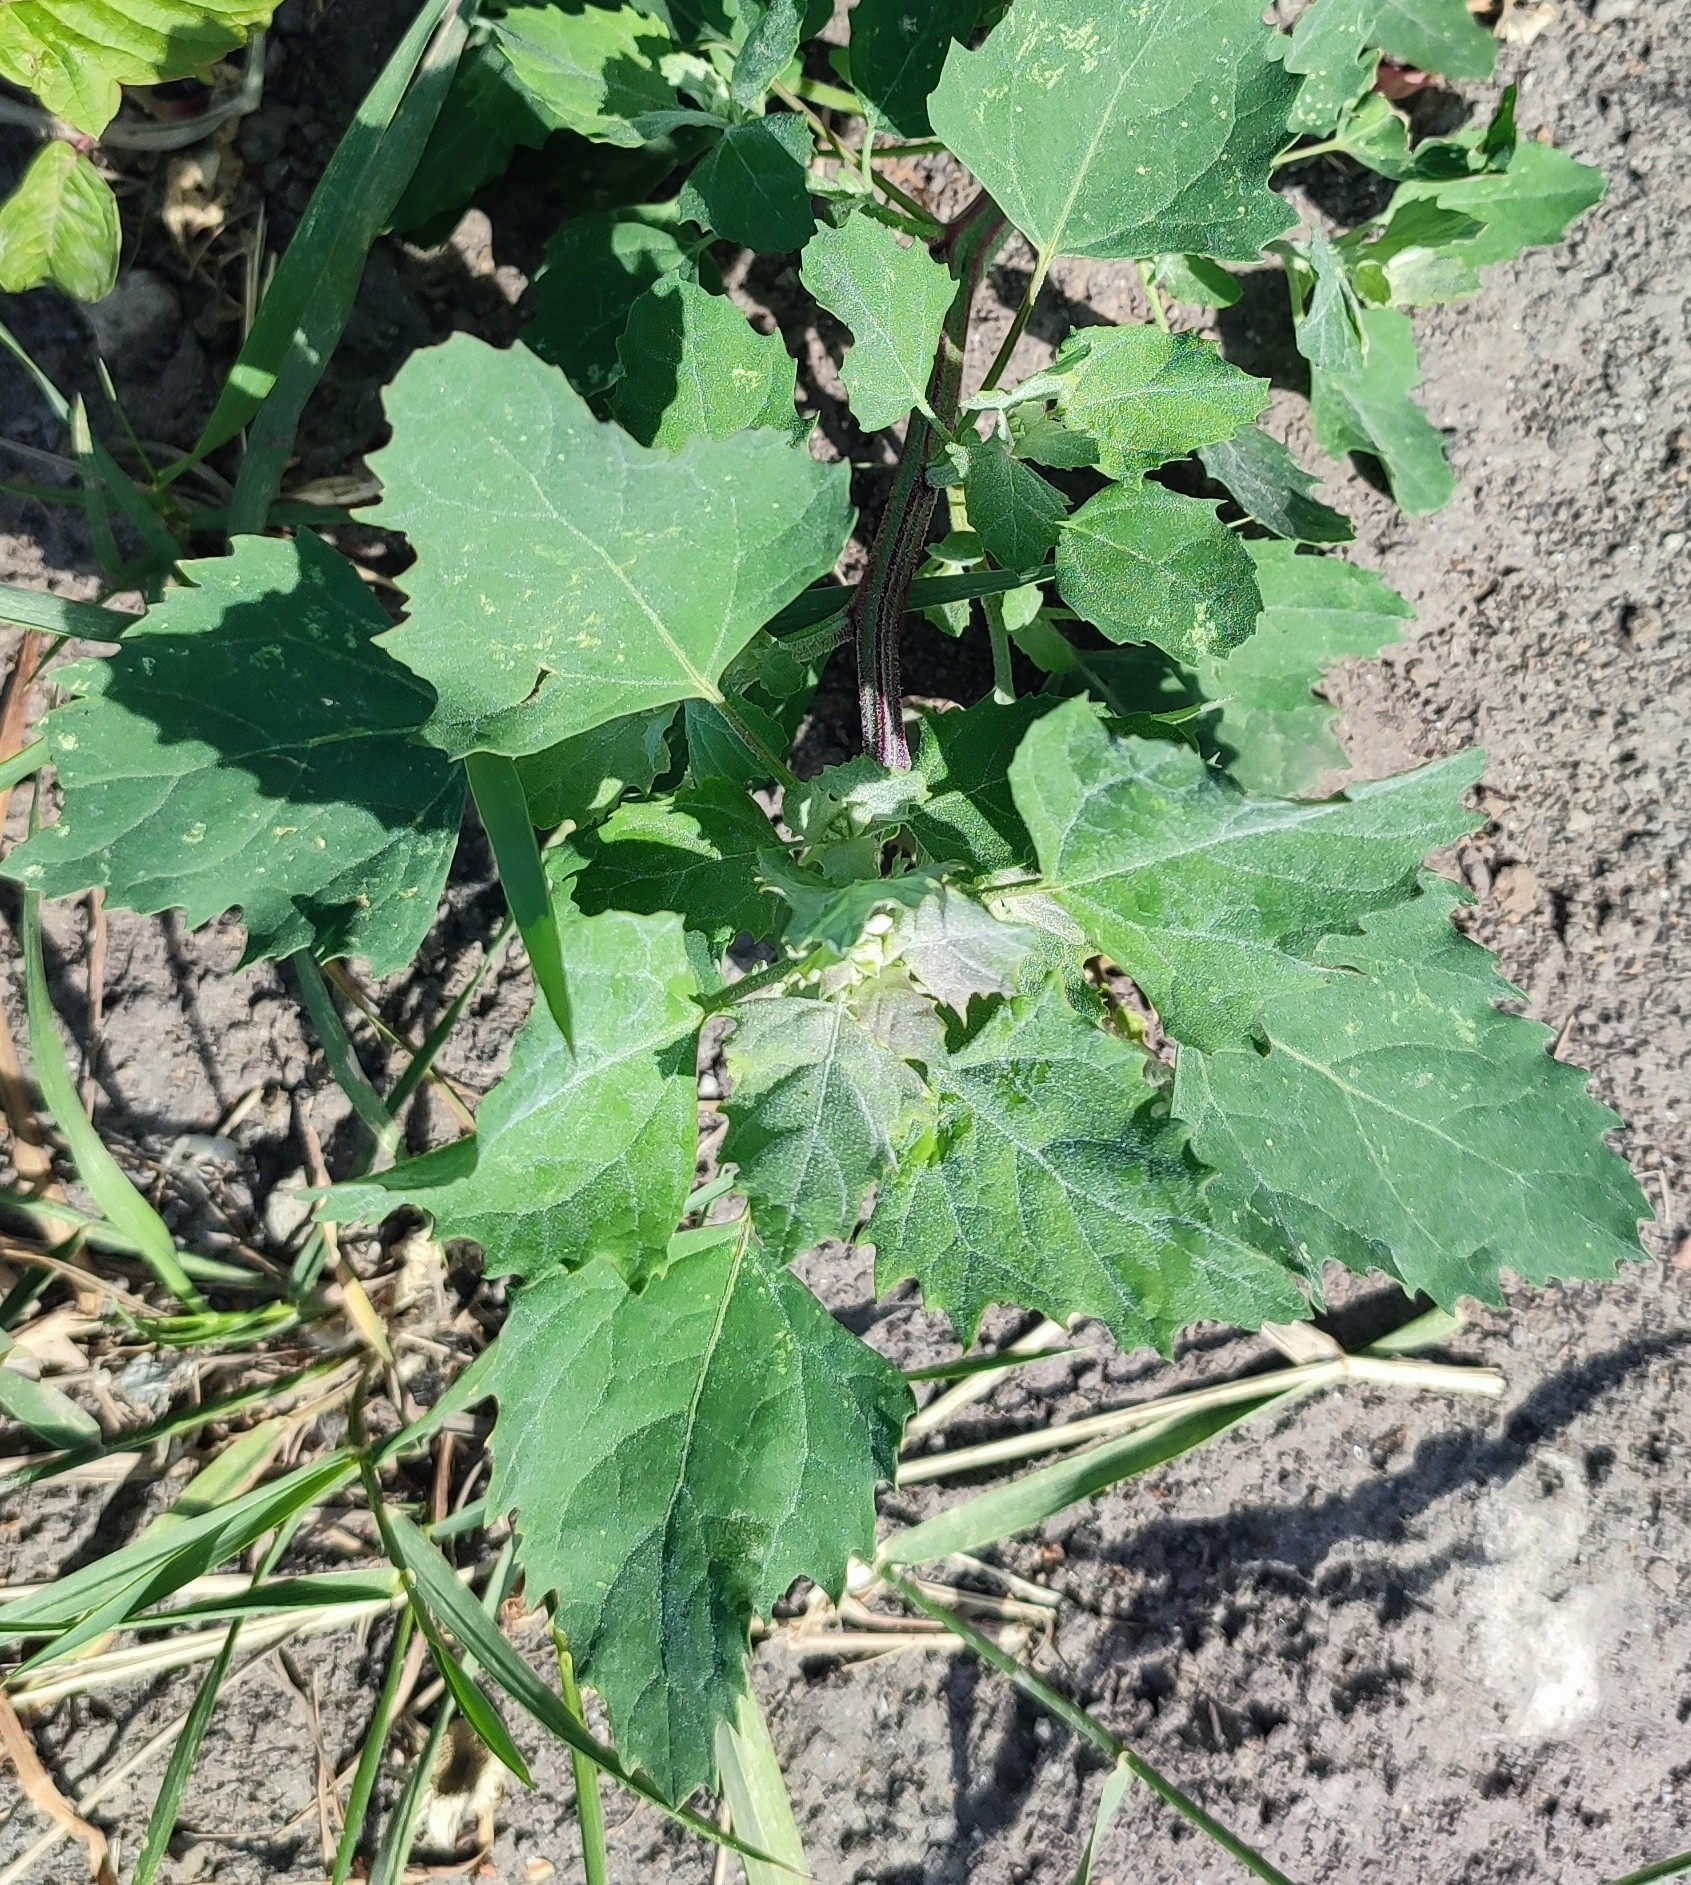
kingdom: Plantae
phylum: Tracheophyta
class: Magnoliopsida
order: Caryophyllales
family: Amaranthaceae
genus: Chenopodium
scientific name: Chenopodium album
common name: Fat-hen
